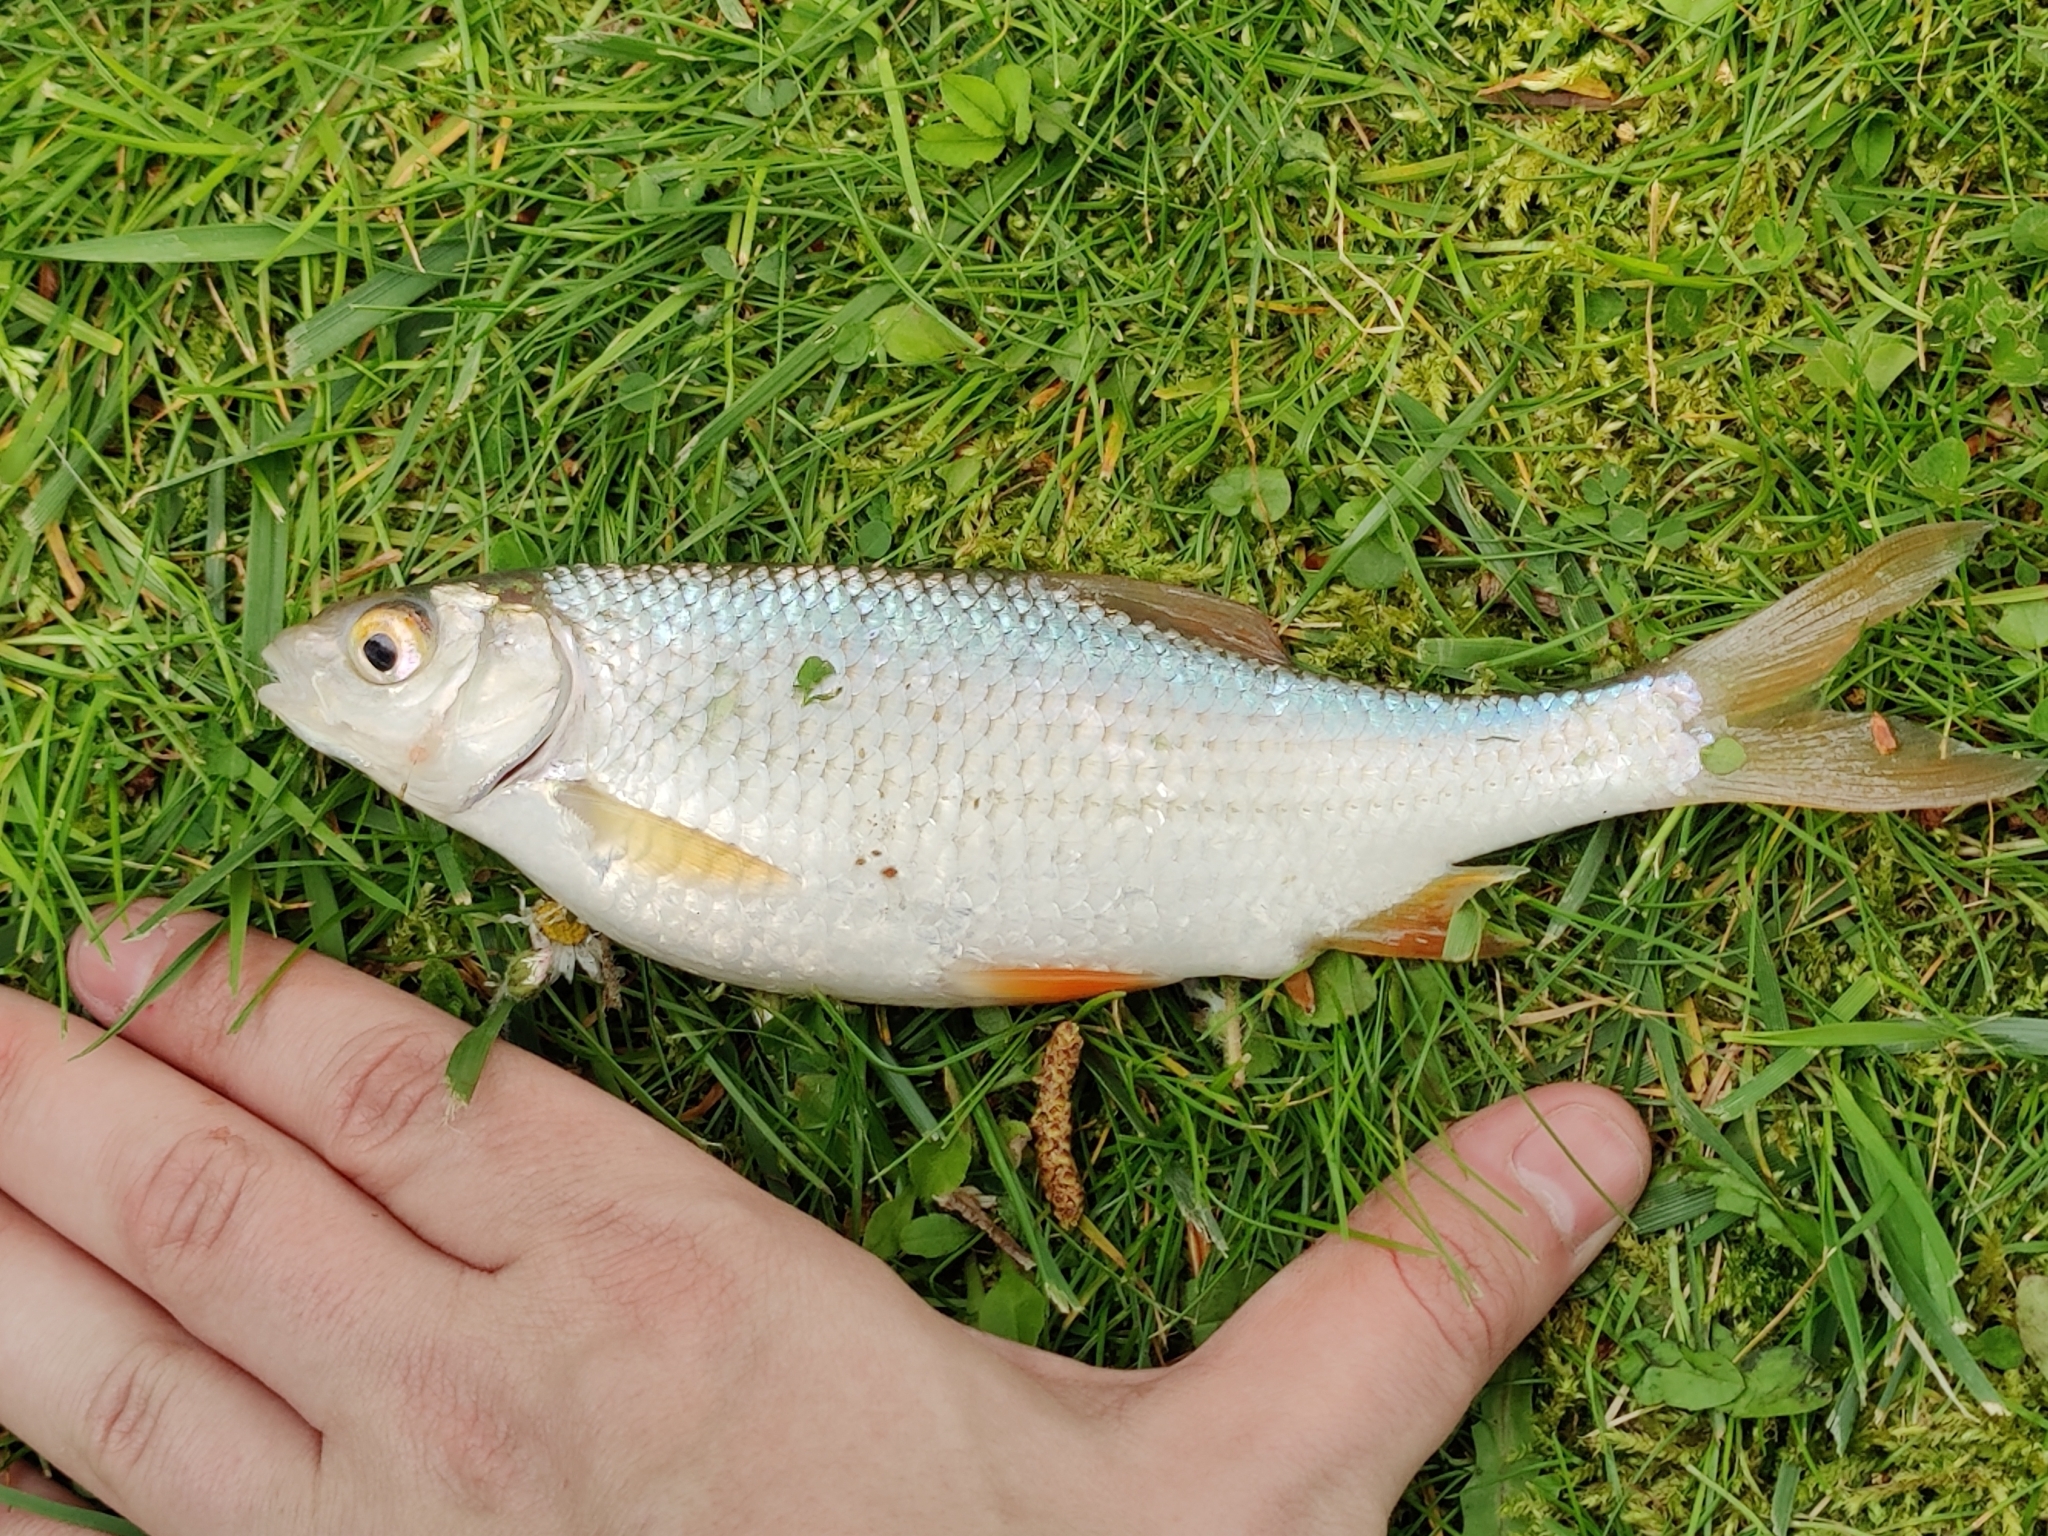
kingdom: Animalia
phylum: Chordata
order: Cypriniformes
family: Cyprinidae
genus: Rutilus
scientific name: Rutilus rutilus
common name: Roach
